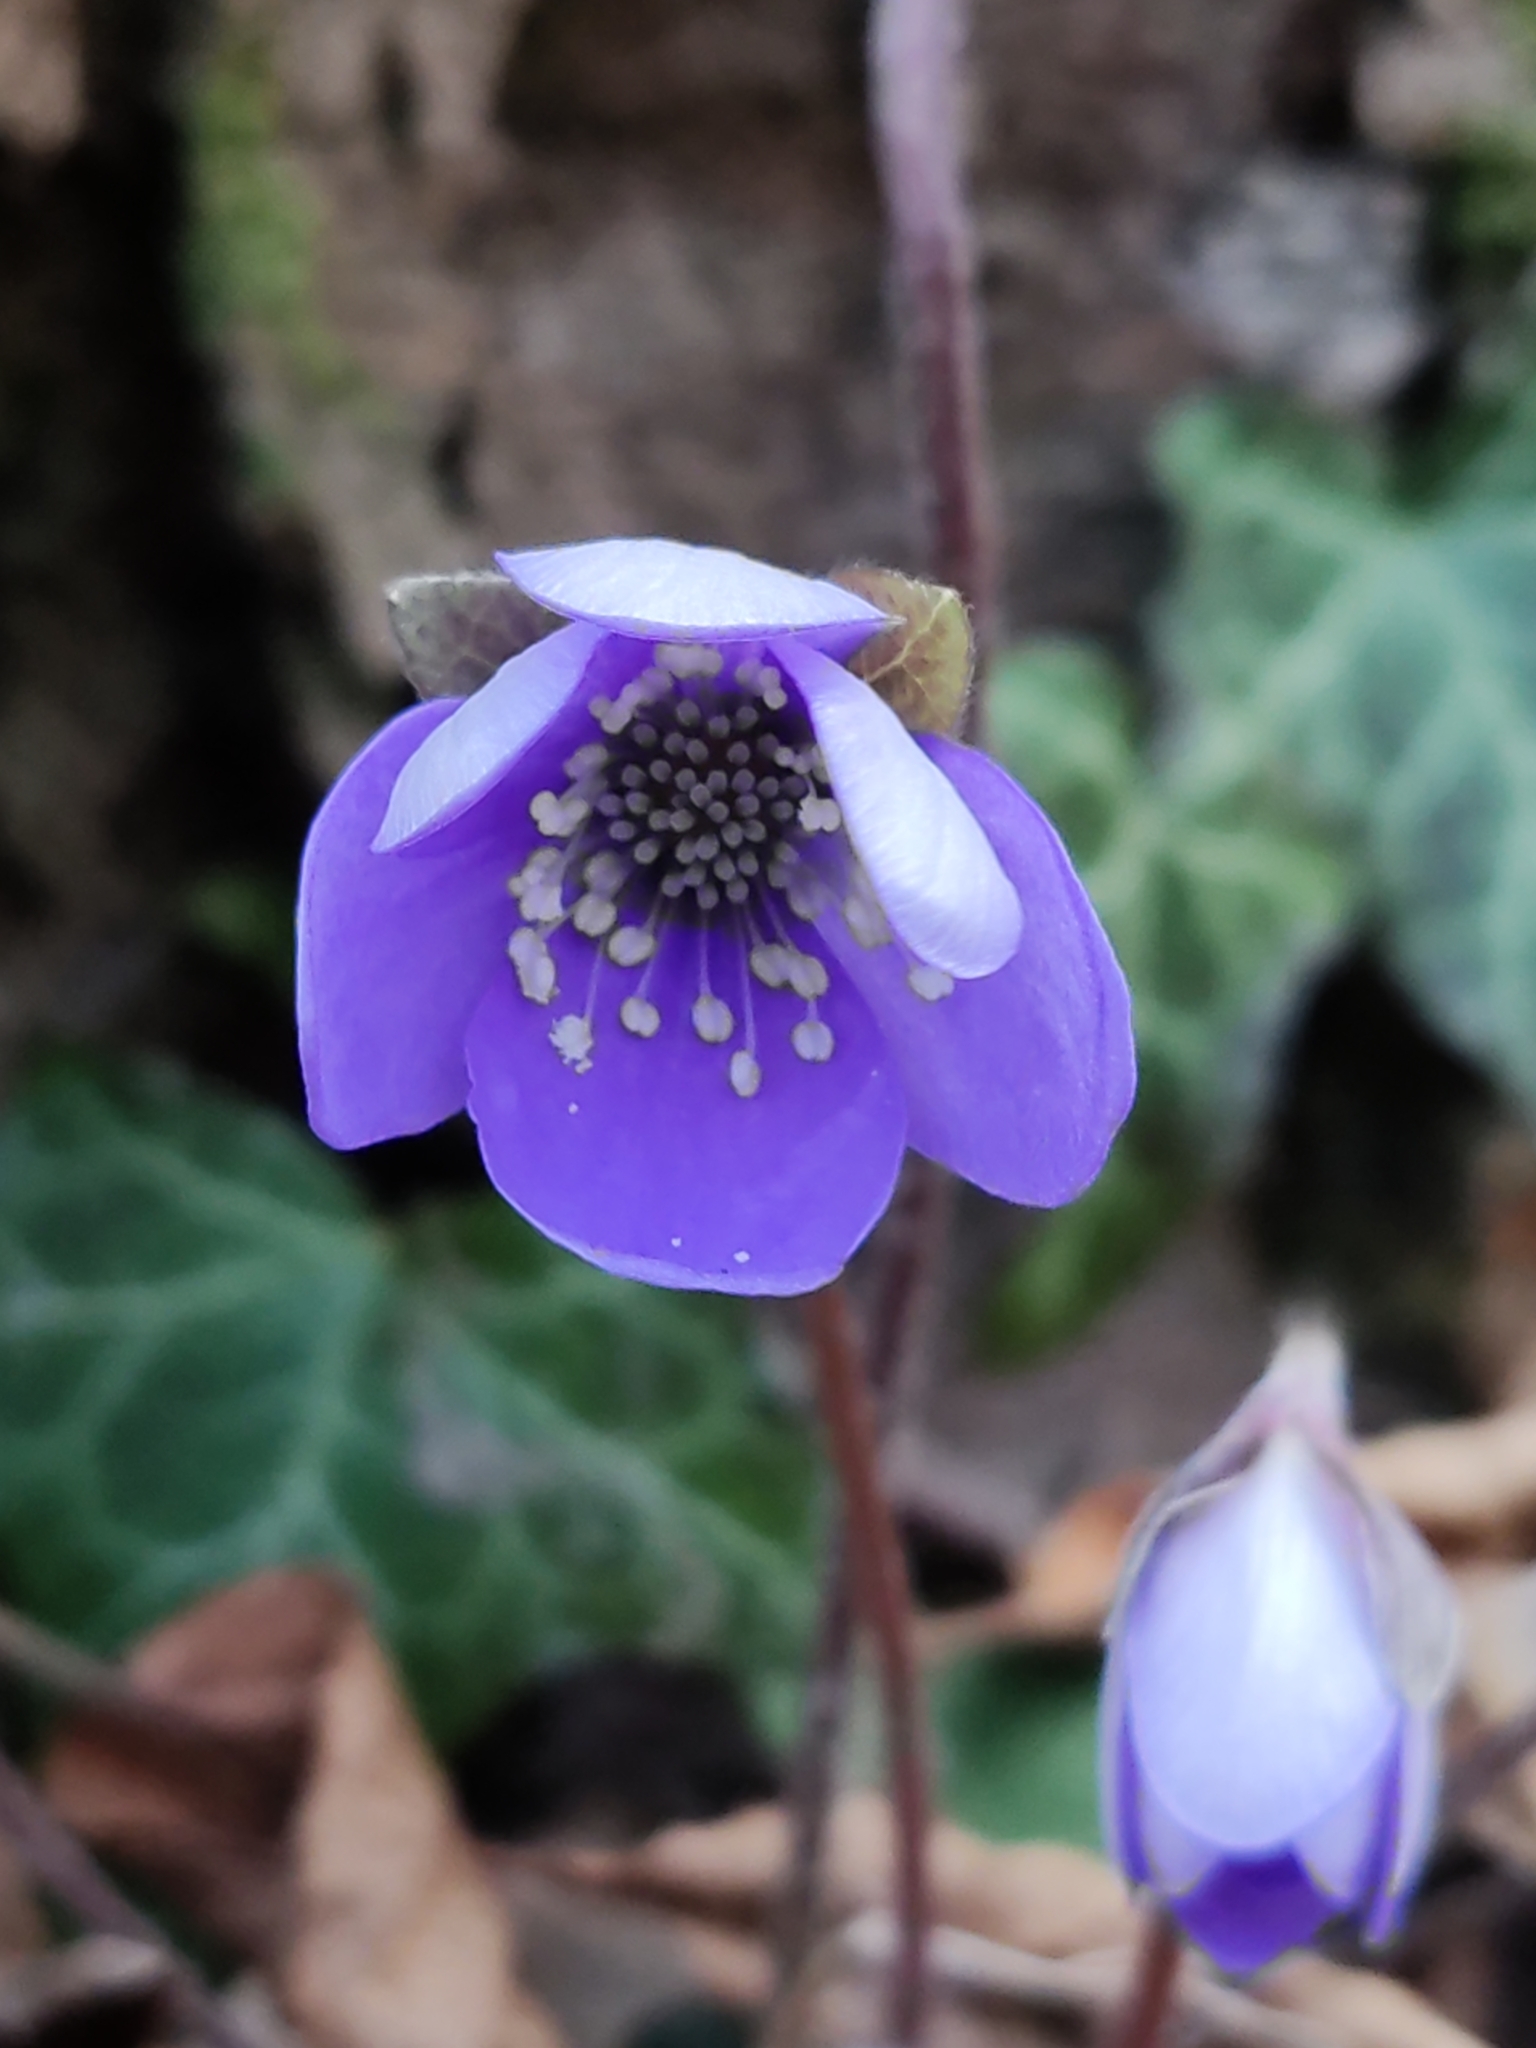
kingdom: Plantae
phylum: Tracheophyta
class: Magnoliopsida
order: Ranunculales
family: Ranunculaceae
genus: Hepatica
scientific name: Hepatica nobilis
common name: Liverleaf
